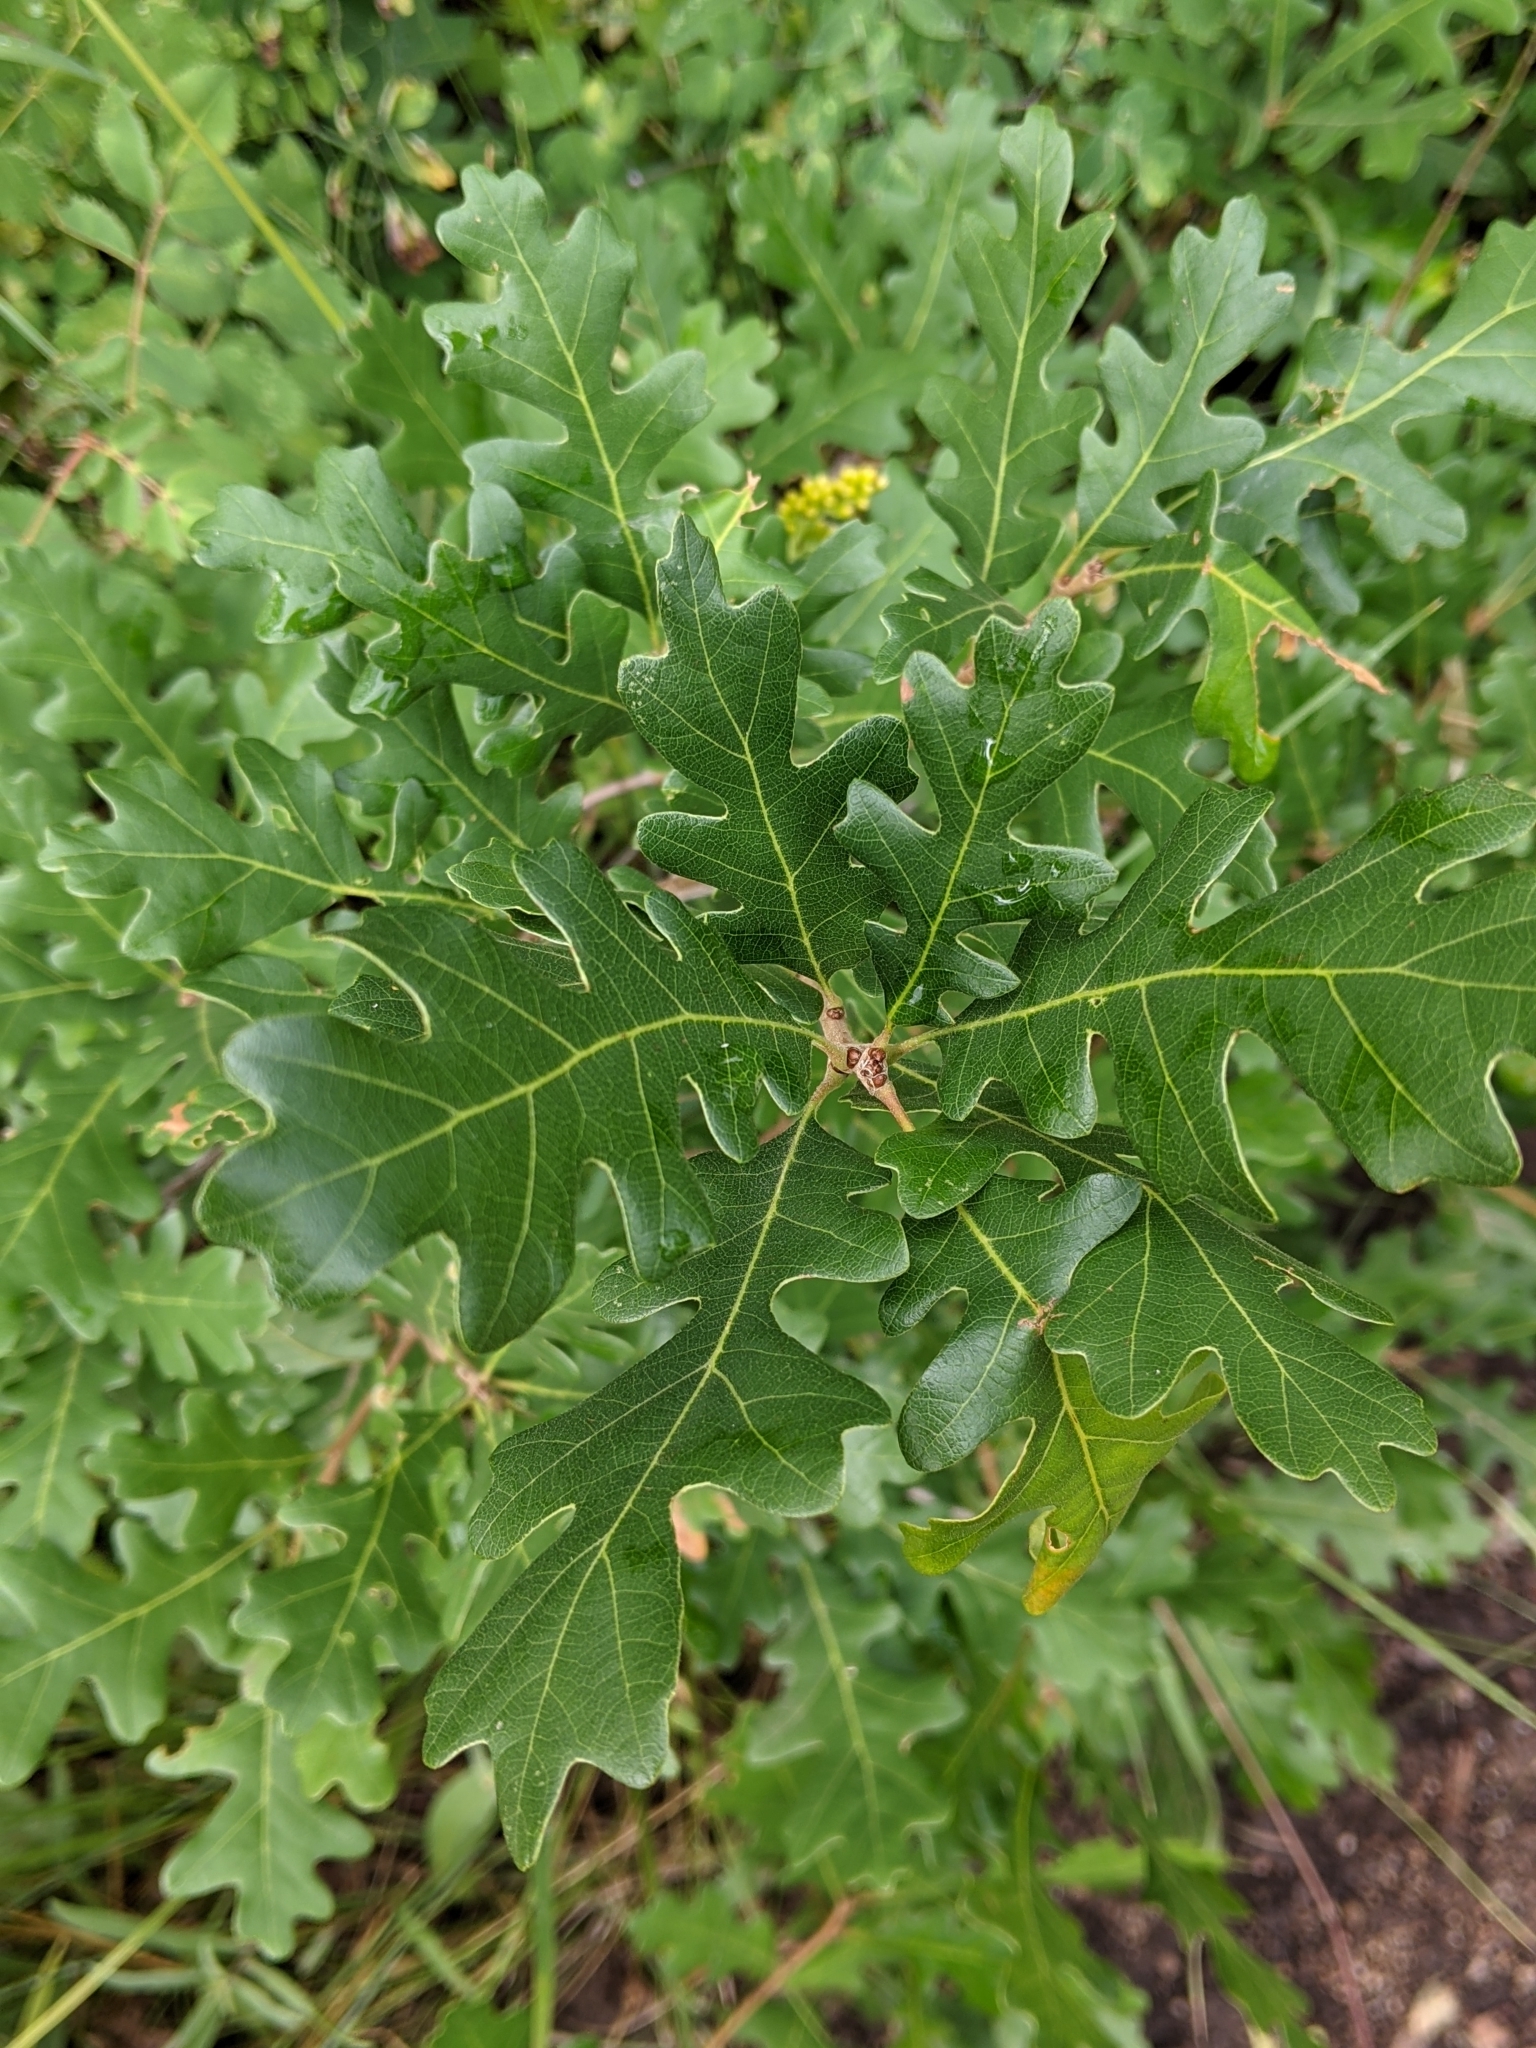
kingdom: Plantae
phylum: Tracheophyta
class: Magnoliopsida
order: Fagales
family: Fagaceae
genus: Quercus
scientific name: Quercus gambelii
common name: Gambel oak
